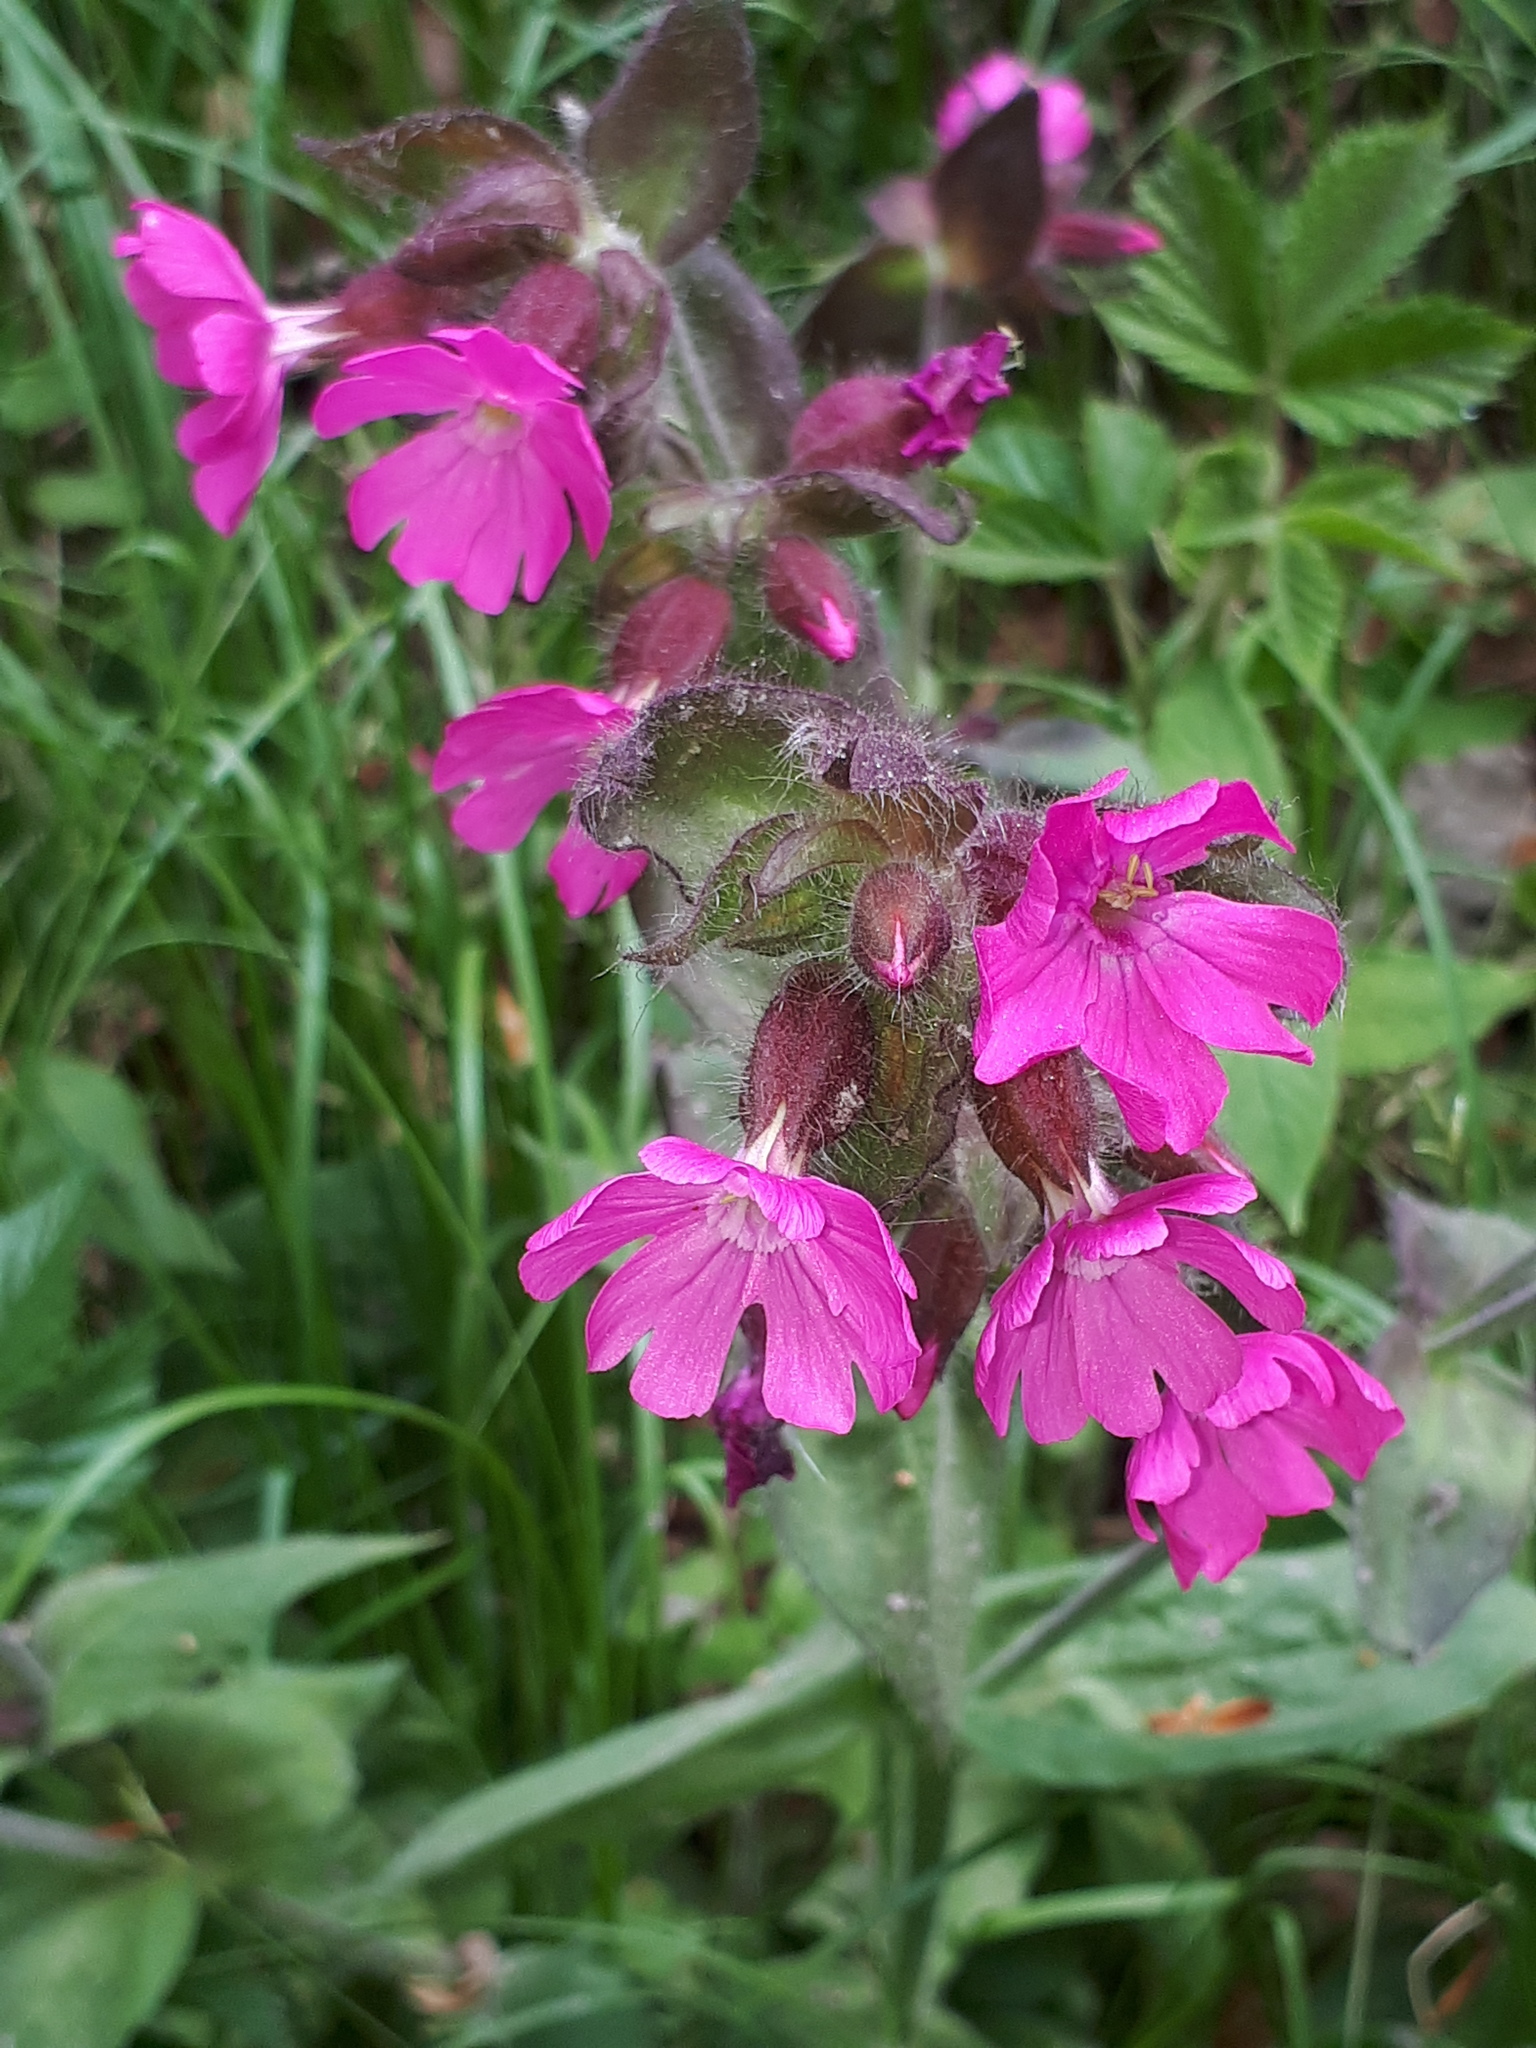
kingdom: Plantae
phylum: Tracheophyta
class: Magnoliopsida
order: Caryophyllales
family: Caryophyllaceae
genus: Silene
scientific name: Silene dioica
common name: Red campion
